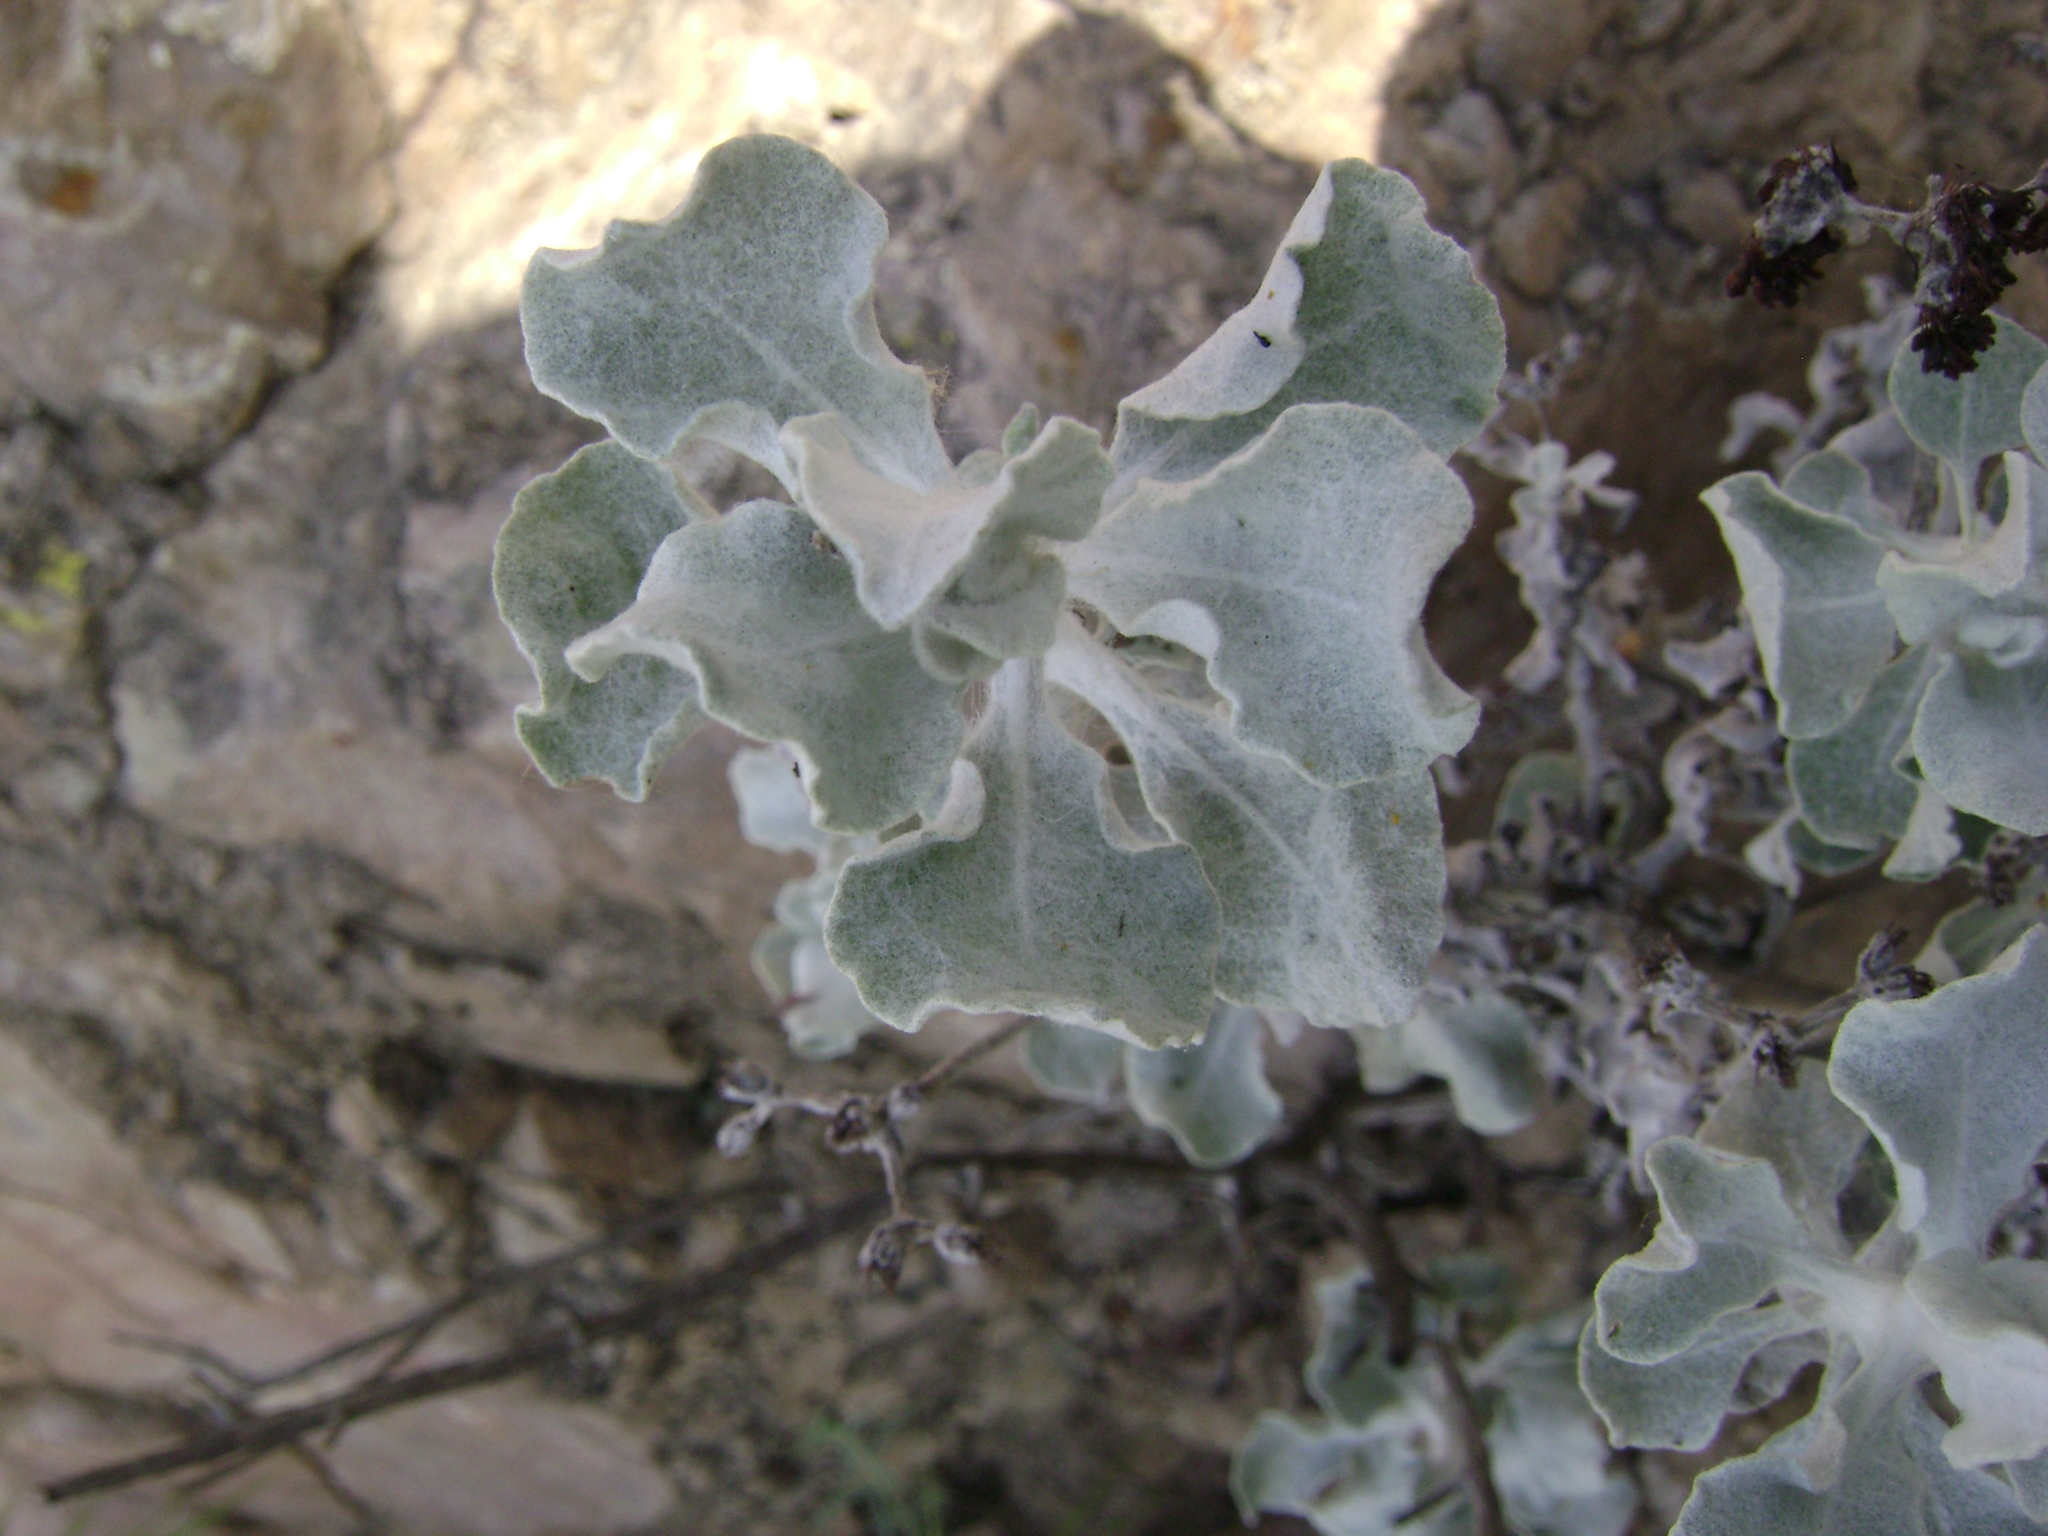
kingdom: Plantae
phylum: Tracheophyta
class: Magnoliopsida
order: Caryophyllales
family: Polygonaceae
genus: Eriogonum
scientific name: Eriogonum crocatum
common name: Saffron wild buckwheat
